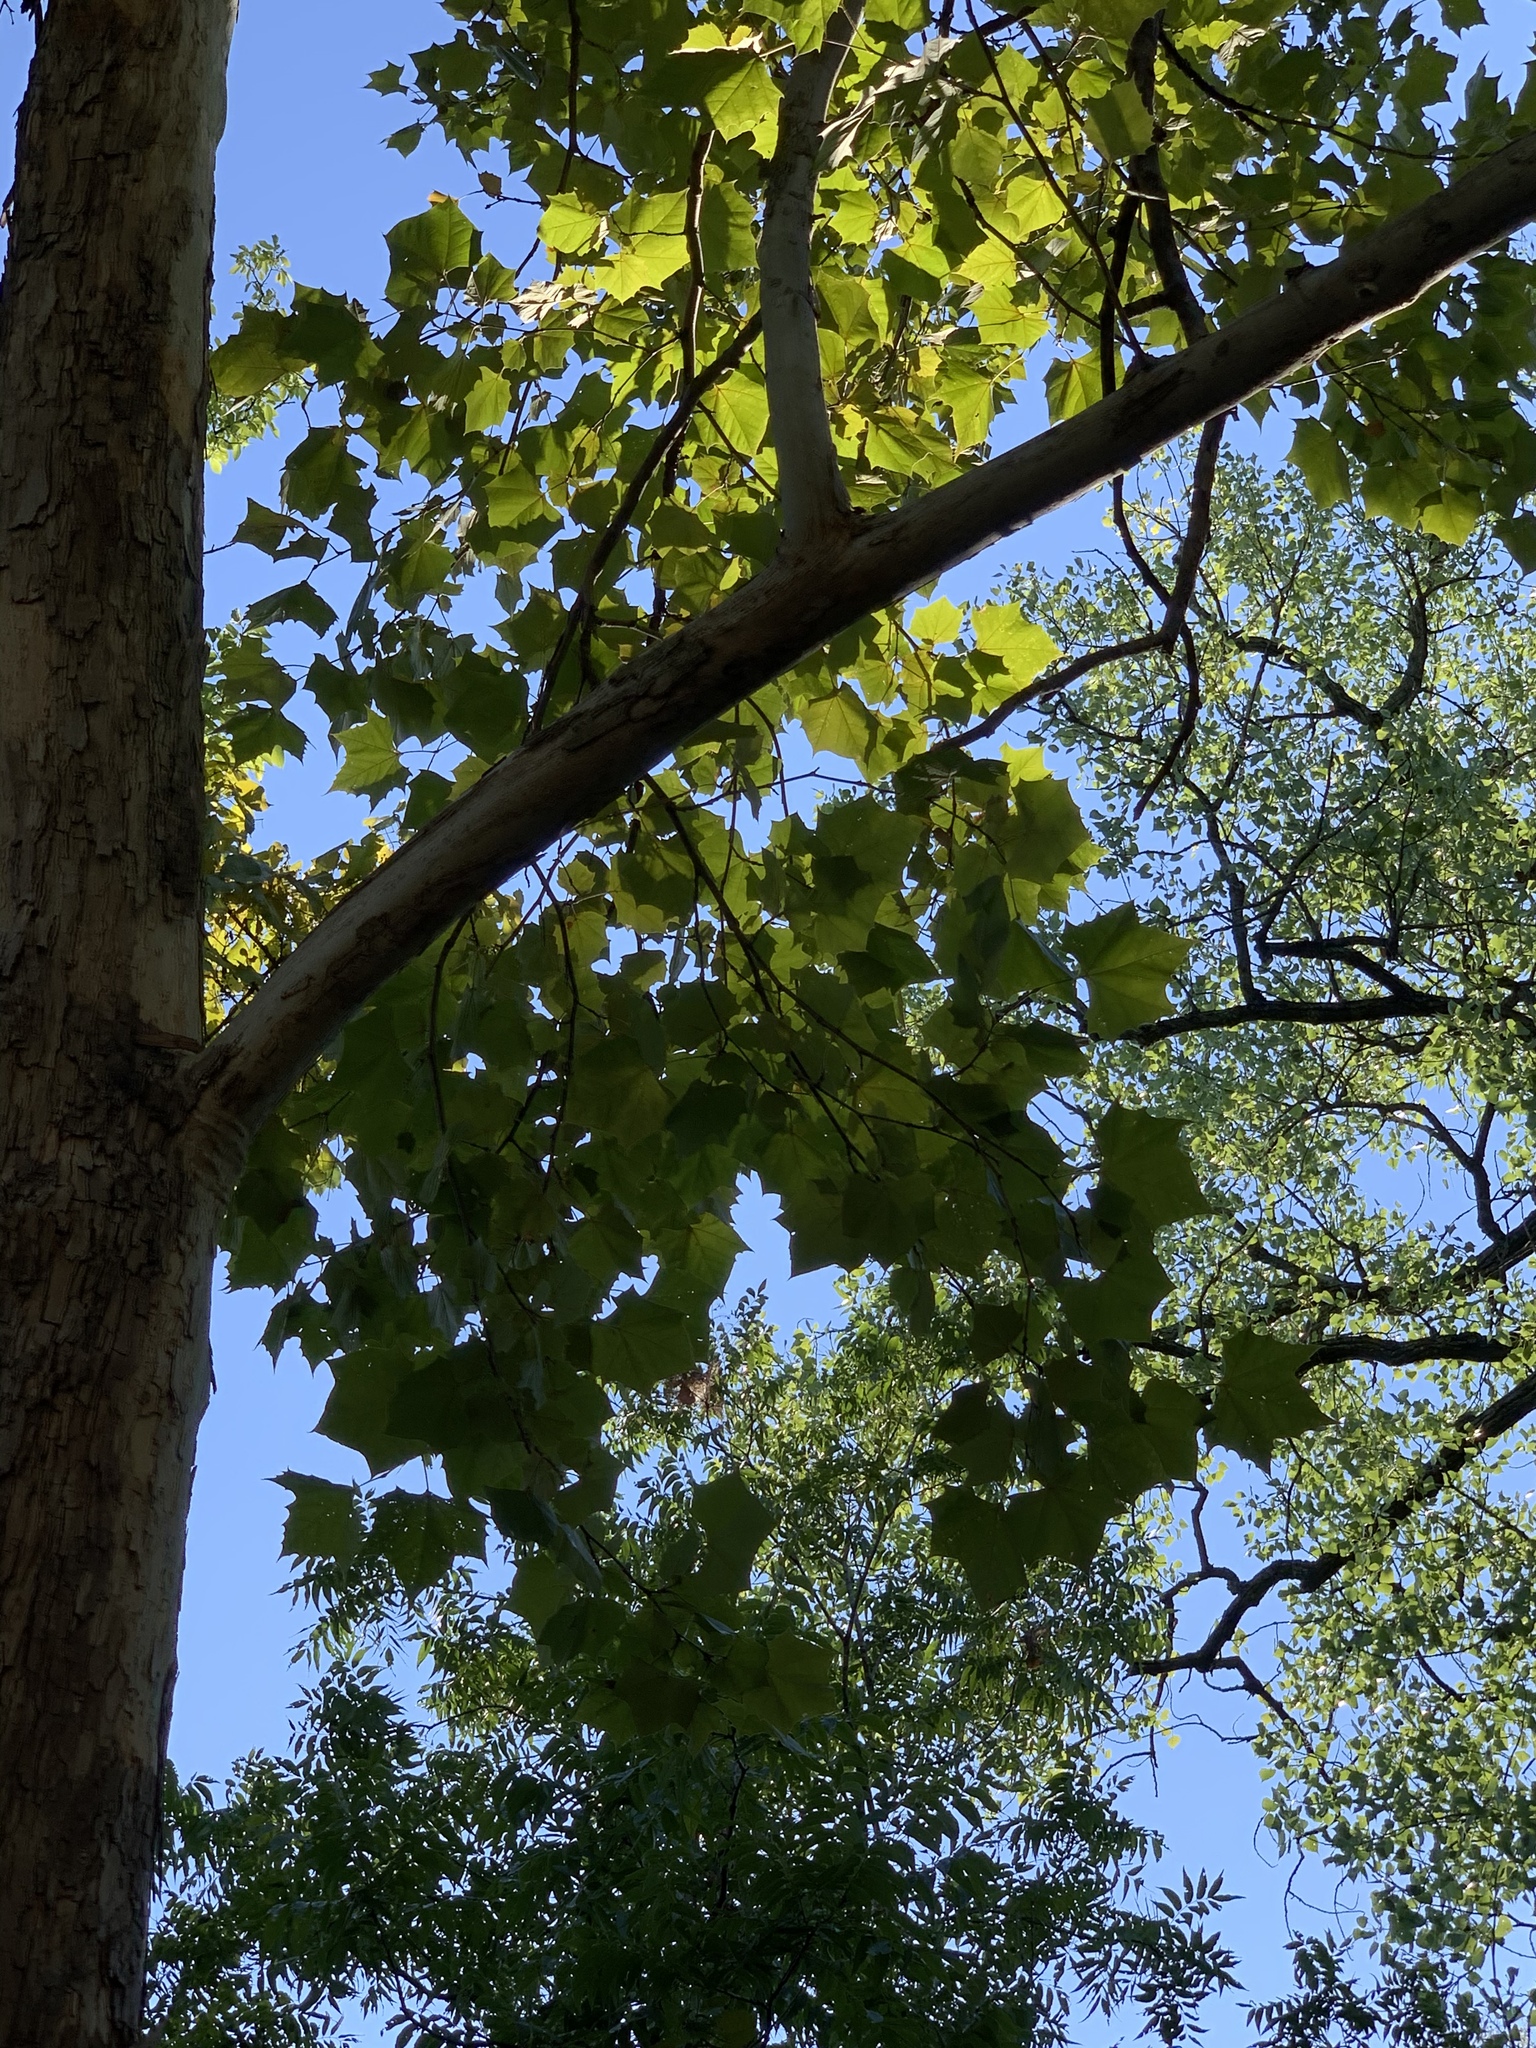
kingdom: Plantae
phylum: Tracheophyta
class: Magnoliopsida
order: Proteales
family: Platanaceae
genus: Platanus
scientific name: Platanus occidentalis
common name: American sycamore
